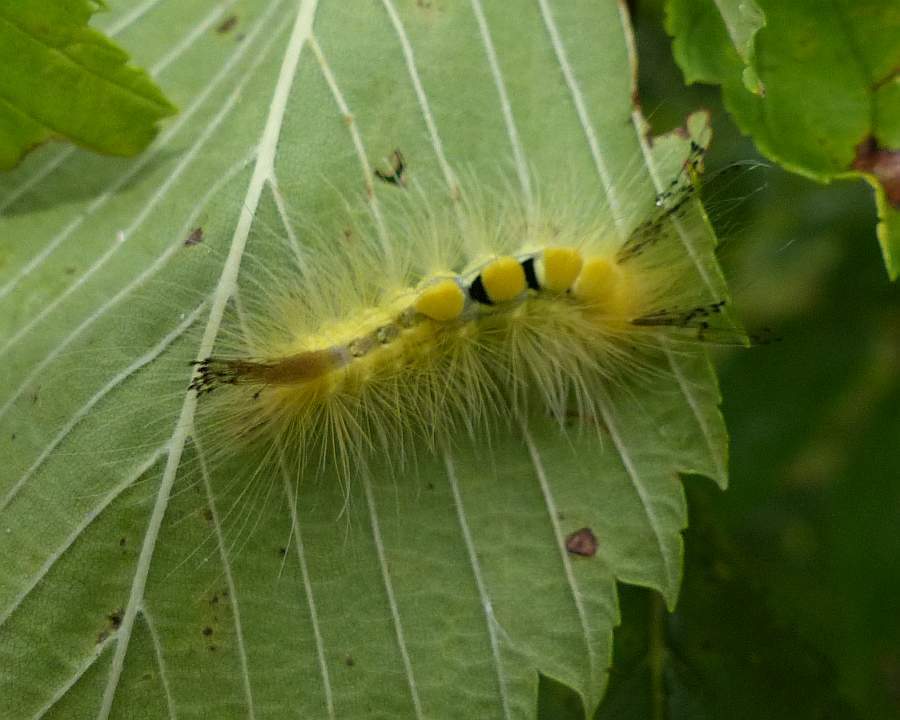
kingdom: Animalia
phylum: Arthropoda
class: Insecta
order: Lepidoptera
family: Erebidae
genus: Orgyia
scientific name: Orgyia definita
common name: Definite tussock moth
